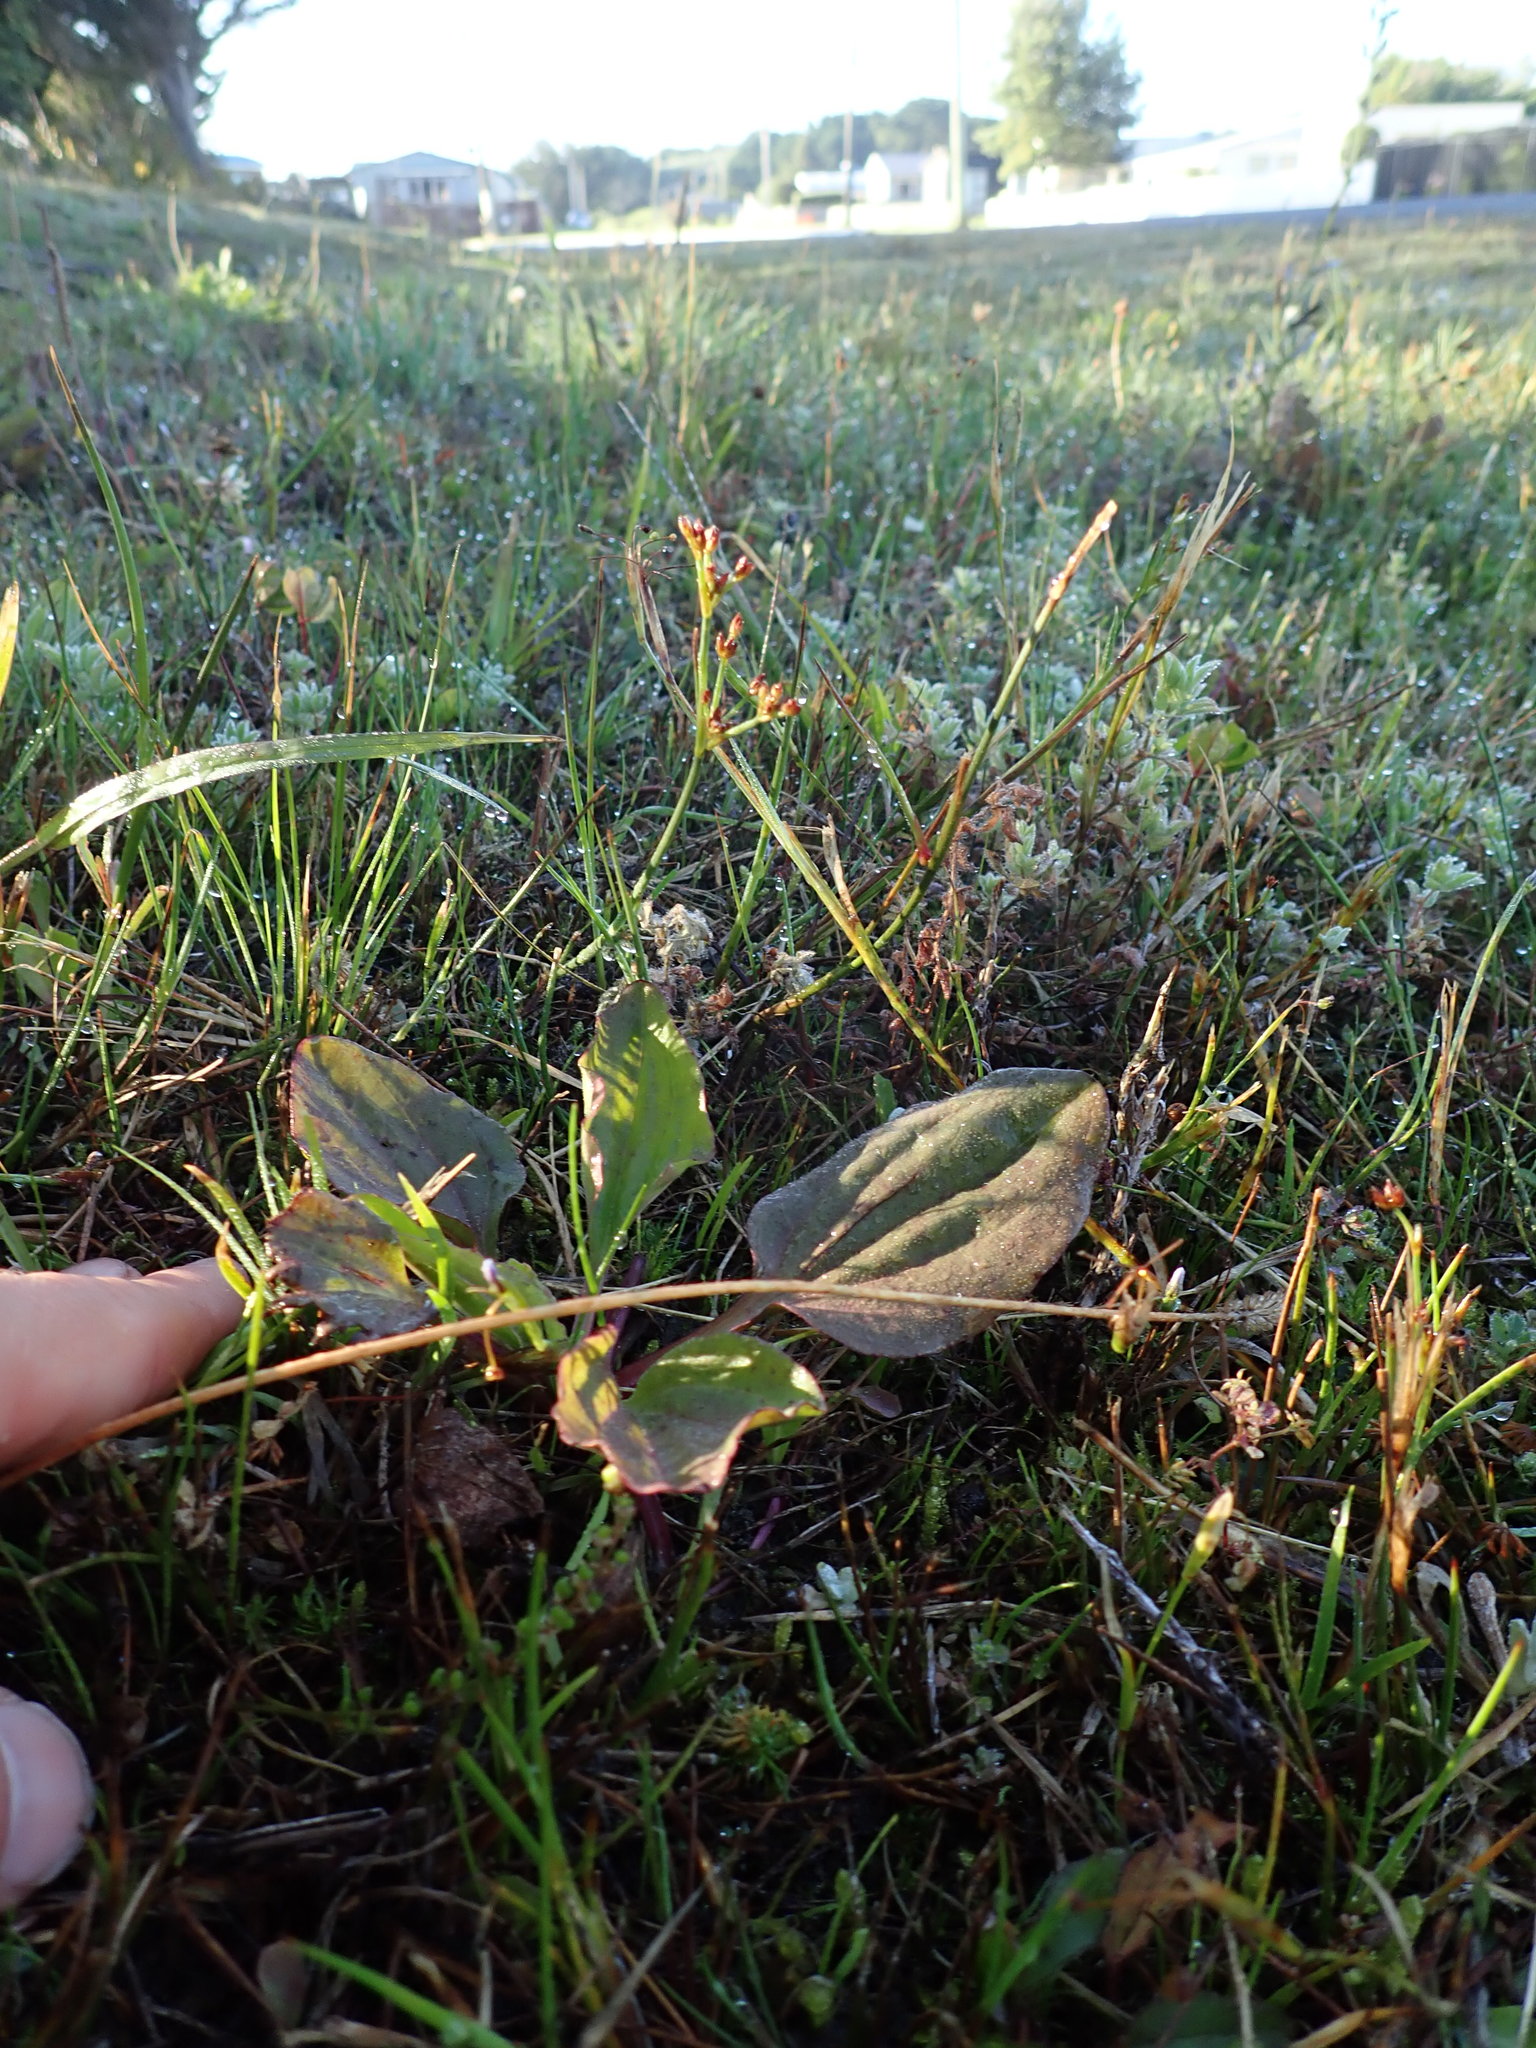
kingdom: Plantae
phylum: Tracheophyta
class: Magnoliopsida
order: Lamiales
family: Plantaginaceae
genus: Plantago
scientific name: Plantago australis
